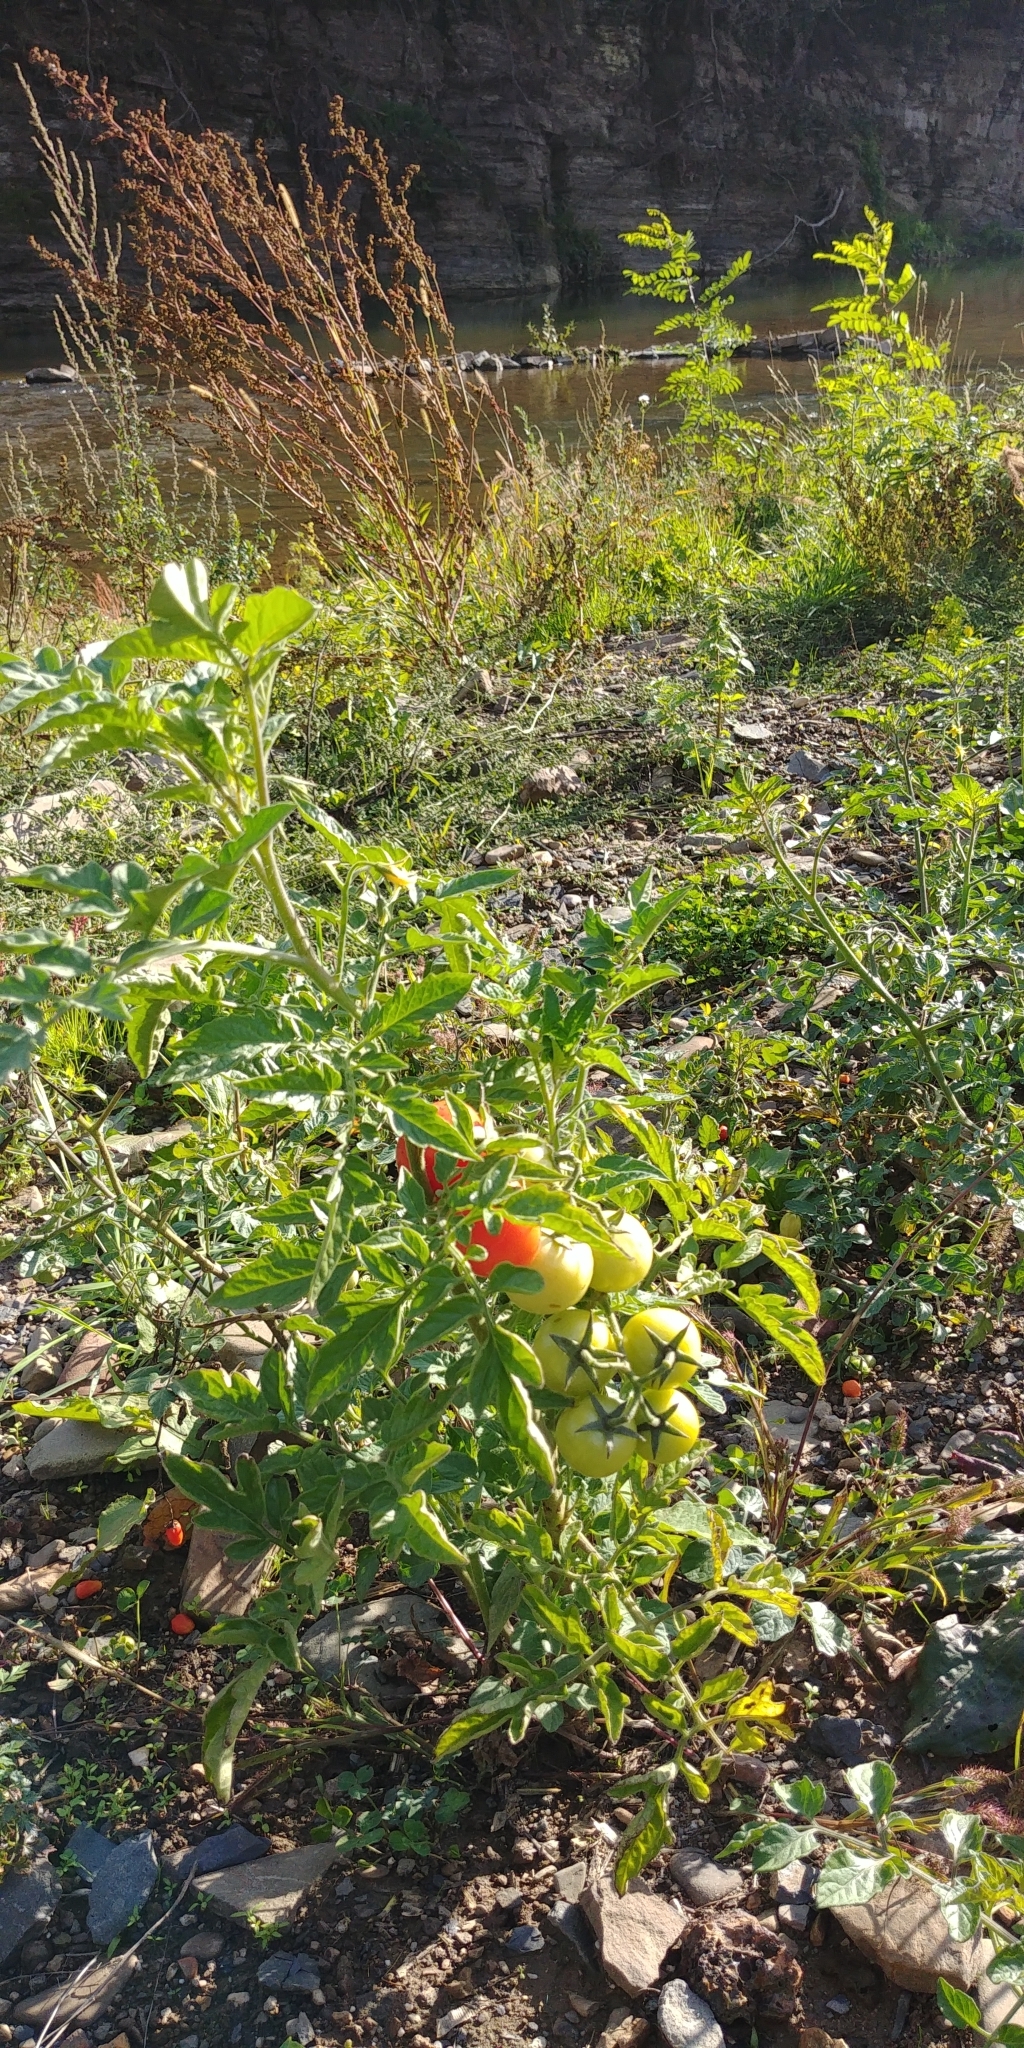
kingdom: Plantae
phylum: Tracheophyta
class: Magnoliopsida
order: Solanales
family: Solanaceae
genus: Solanum
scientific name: Solanum lycopersicum
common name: Garden tomato
